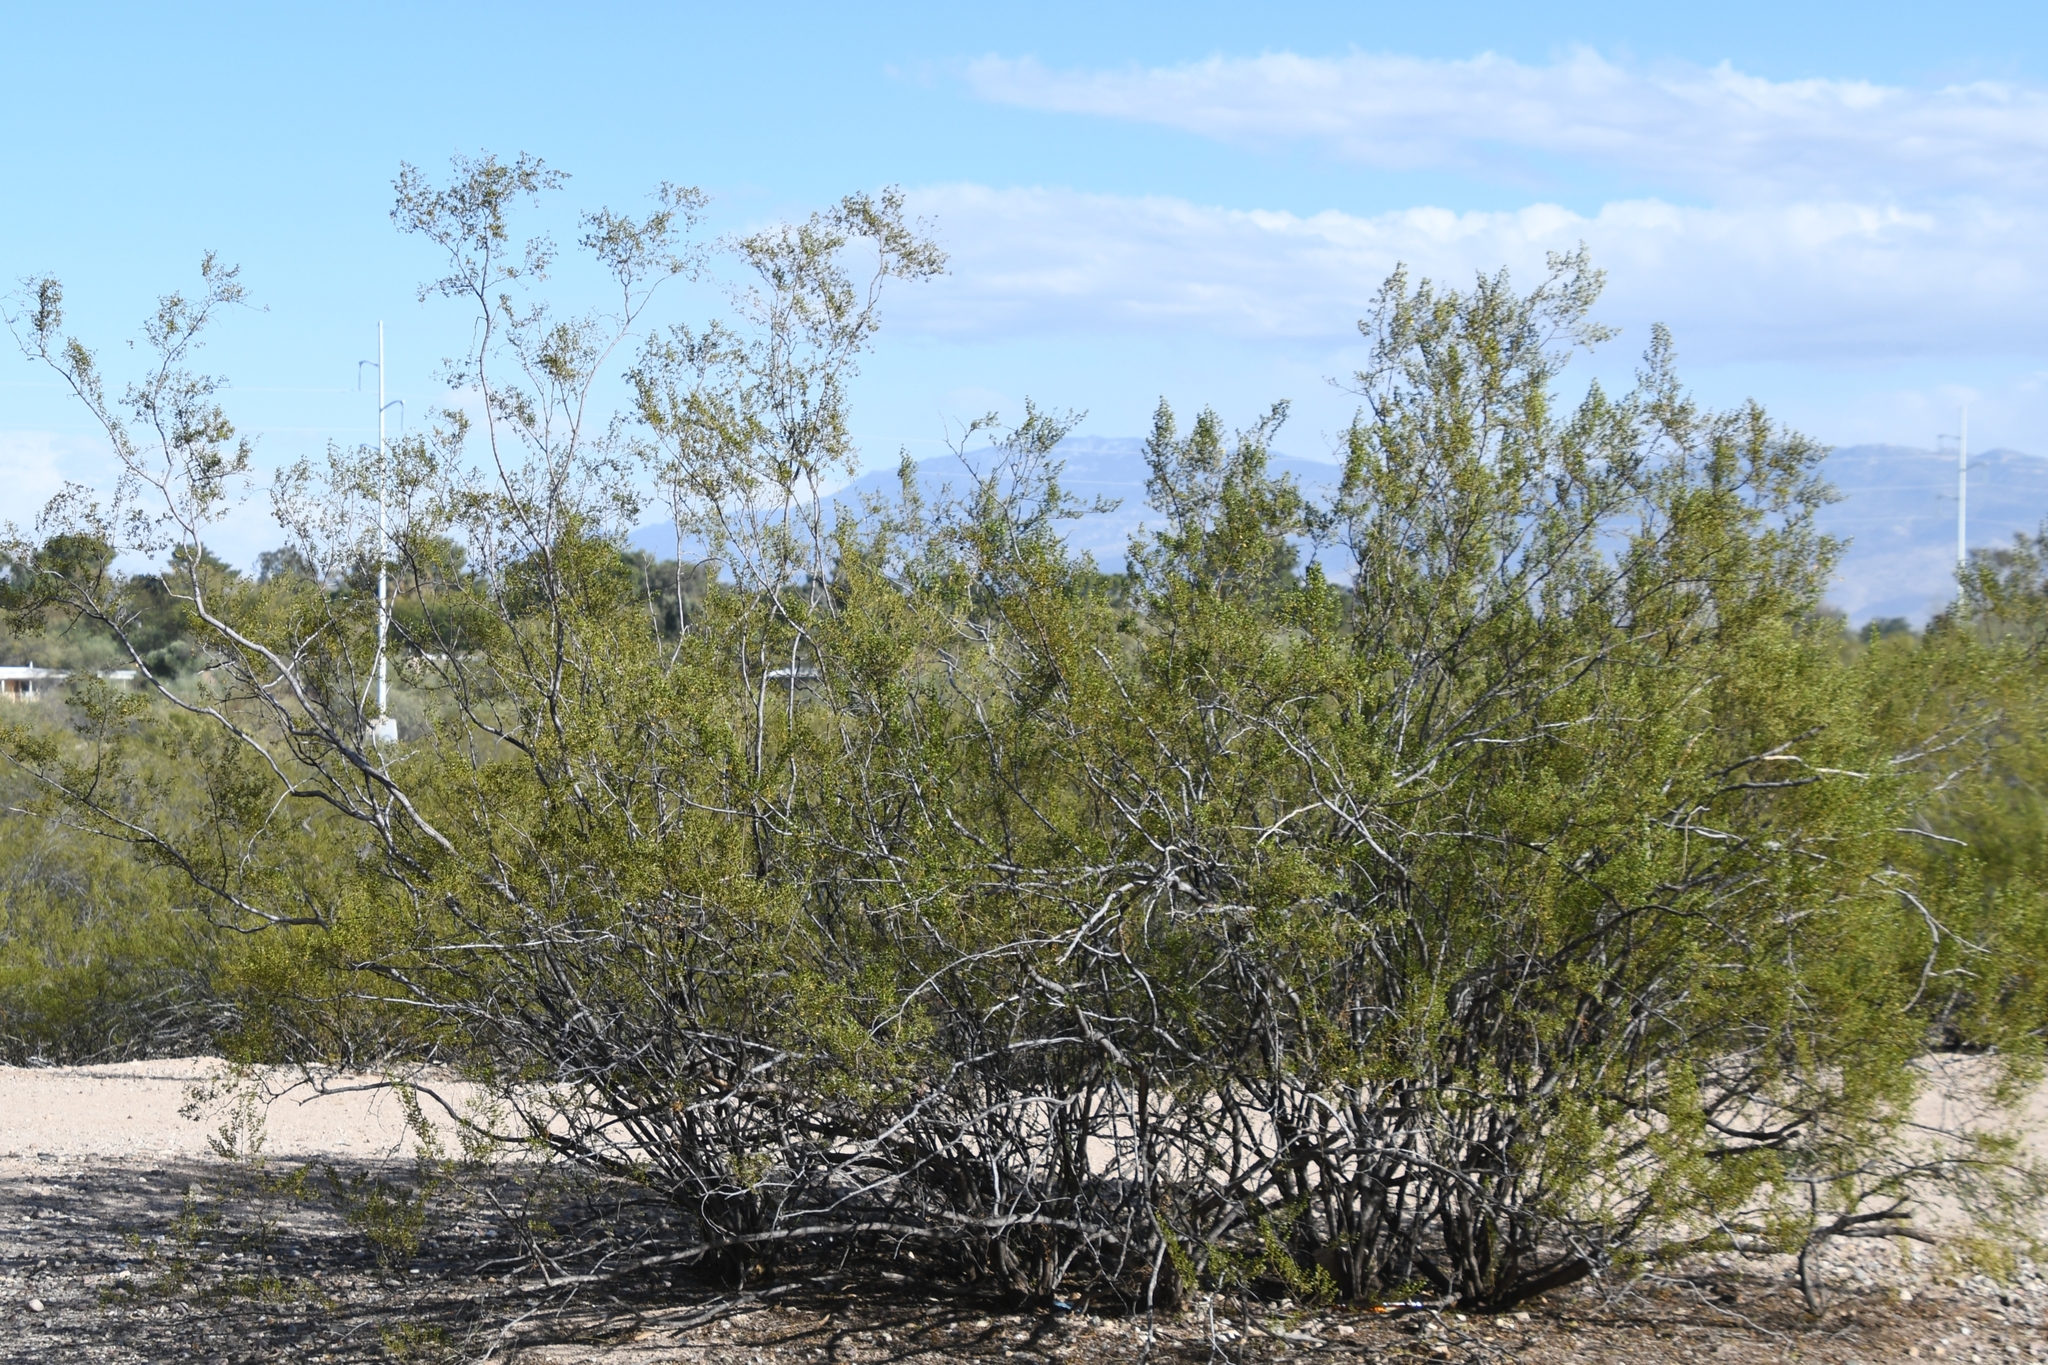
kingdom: Plantae
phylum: Tracheophyta
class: Magnoliopsida
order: Zygophyllales
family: Zygophyllaceae
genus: Larrea
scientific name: Larrea tridentata
